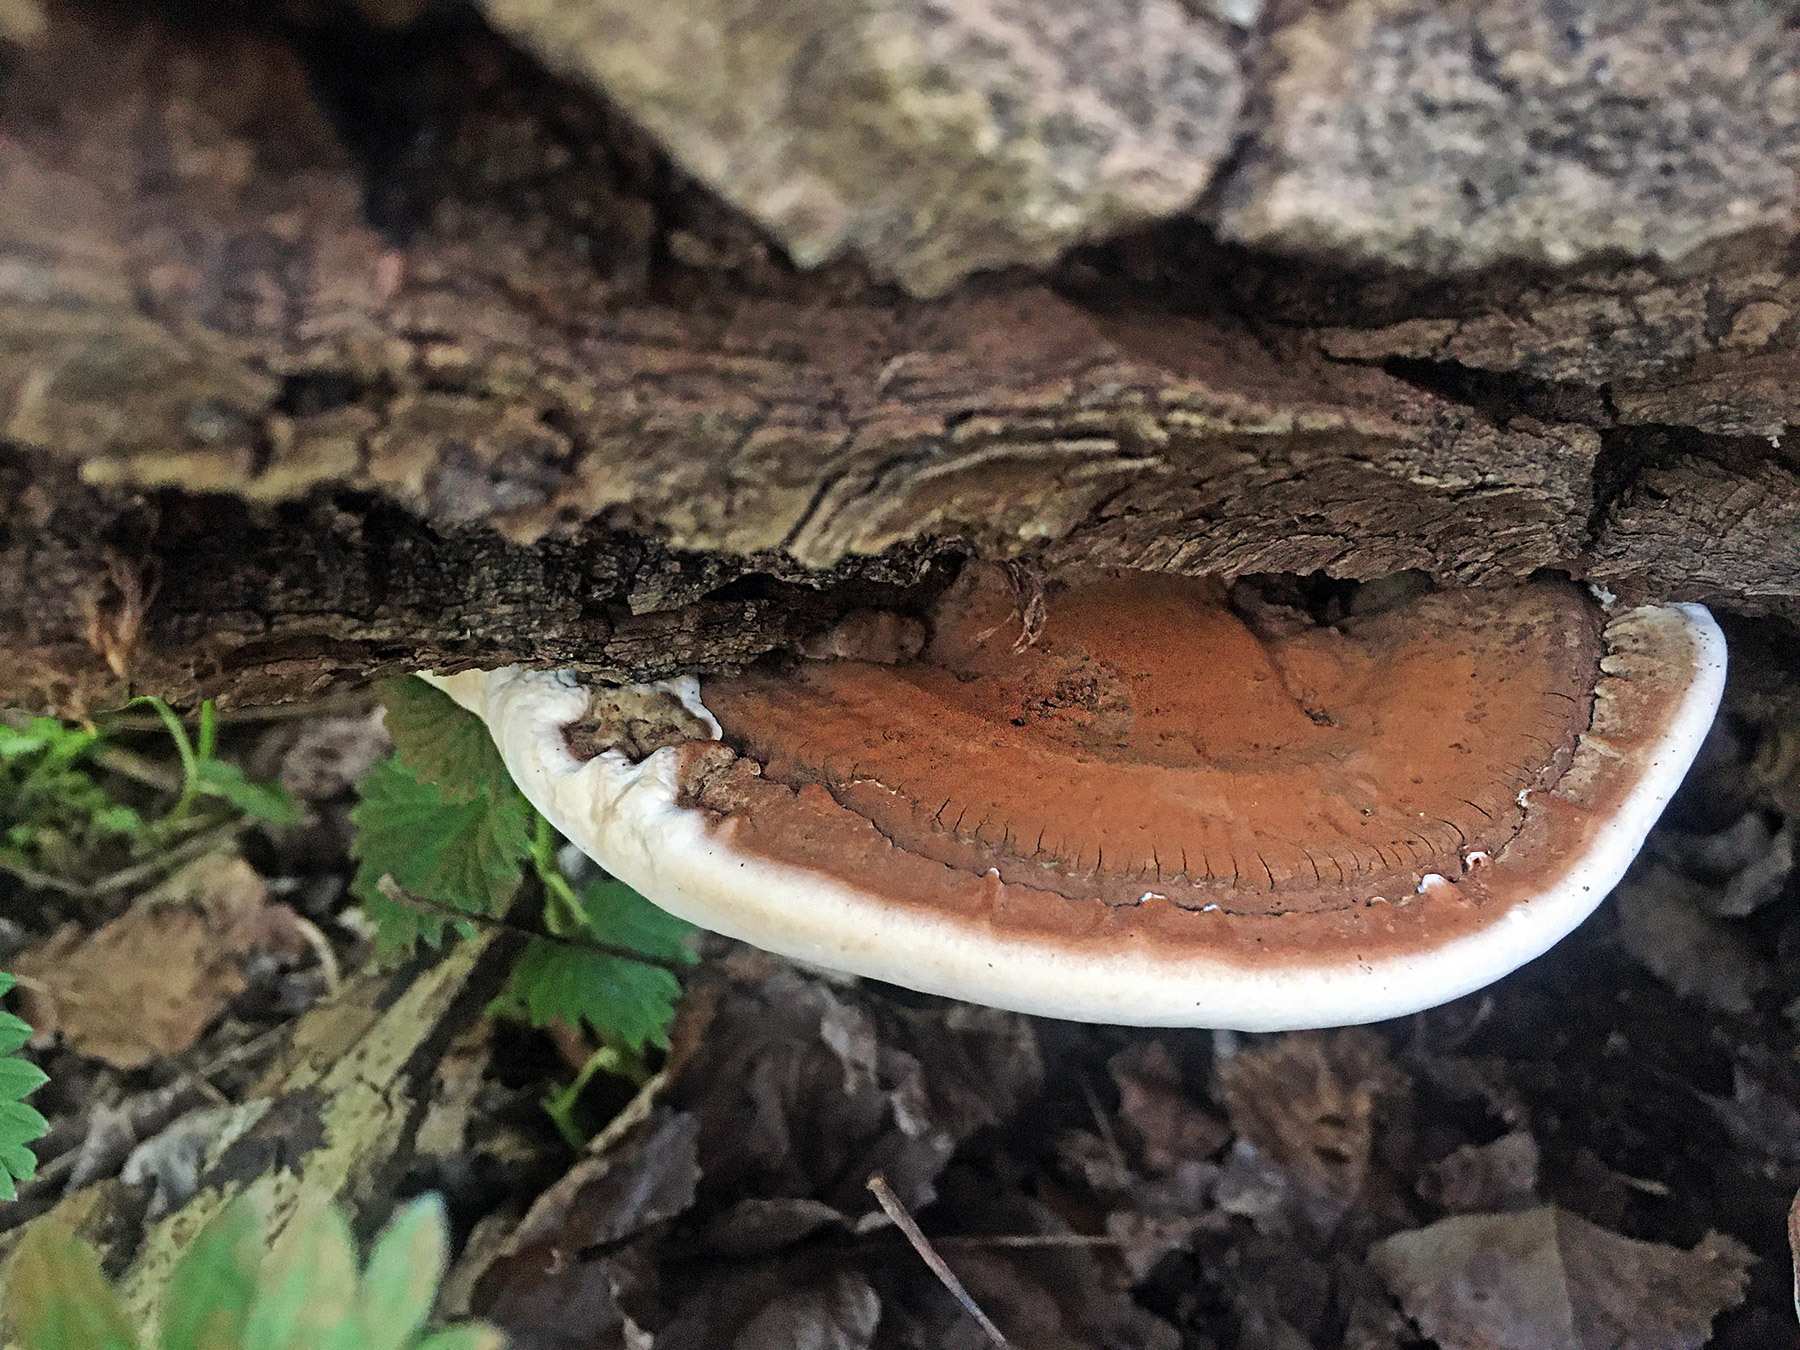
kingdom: Fungi
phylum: Basidiomycota
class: Agaricomycetes
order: Polyporales
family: Polyporaceae
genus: Ganoderma
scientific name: Ganoderma applanatum
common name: Artist's bracket
